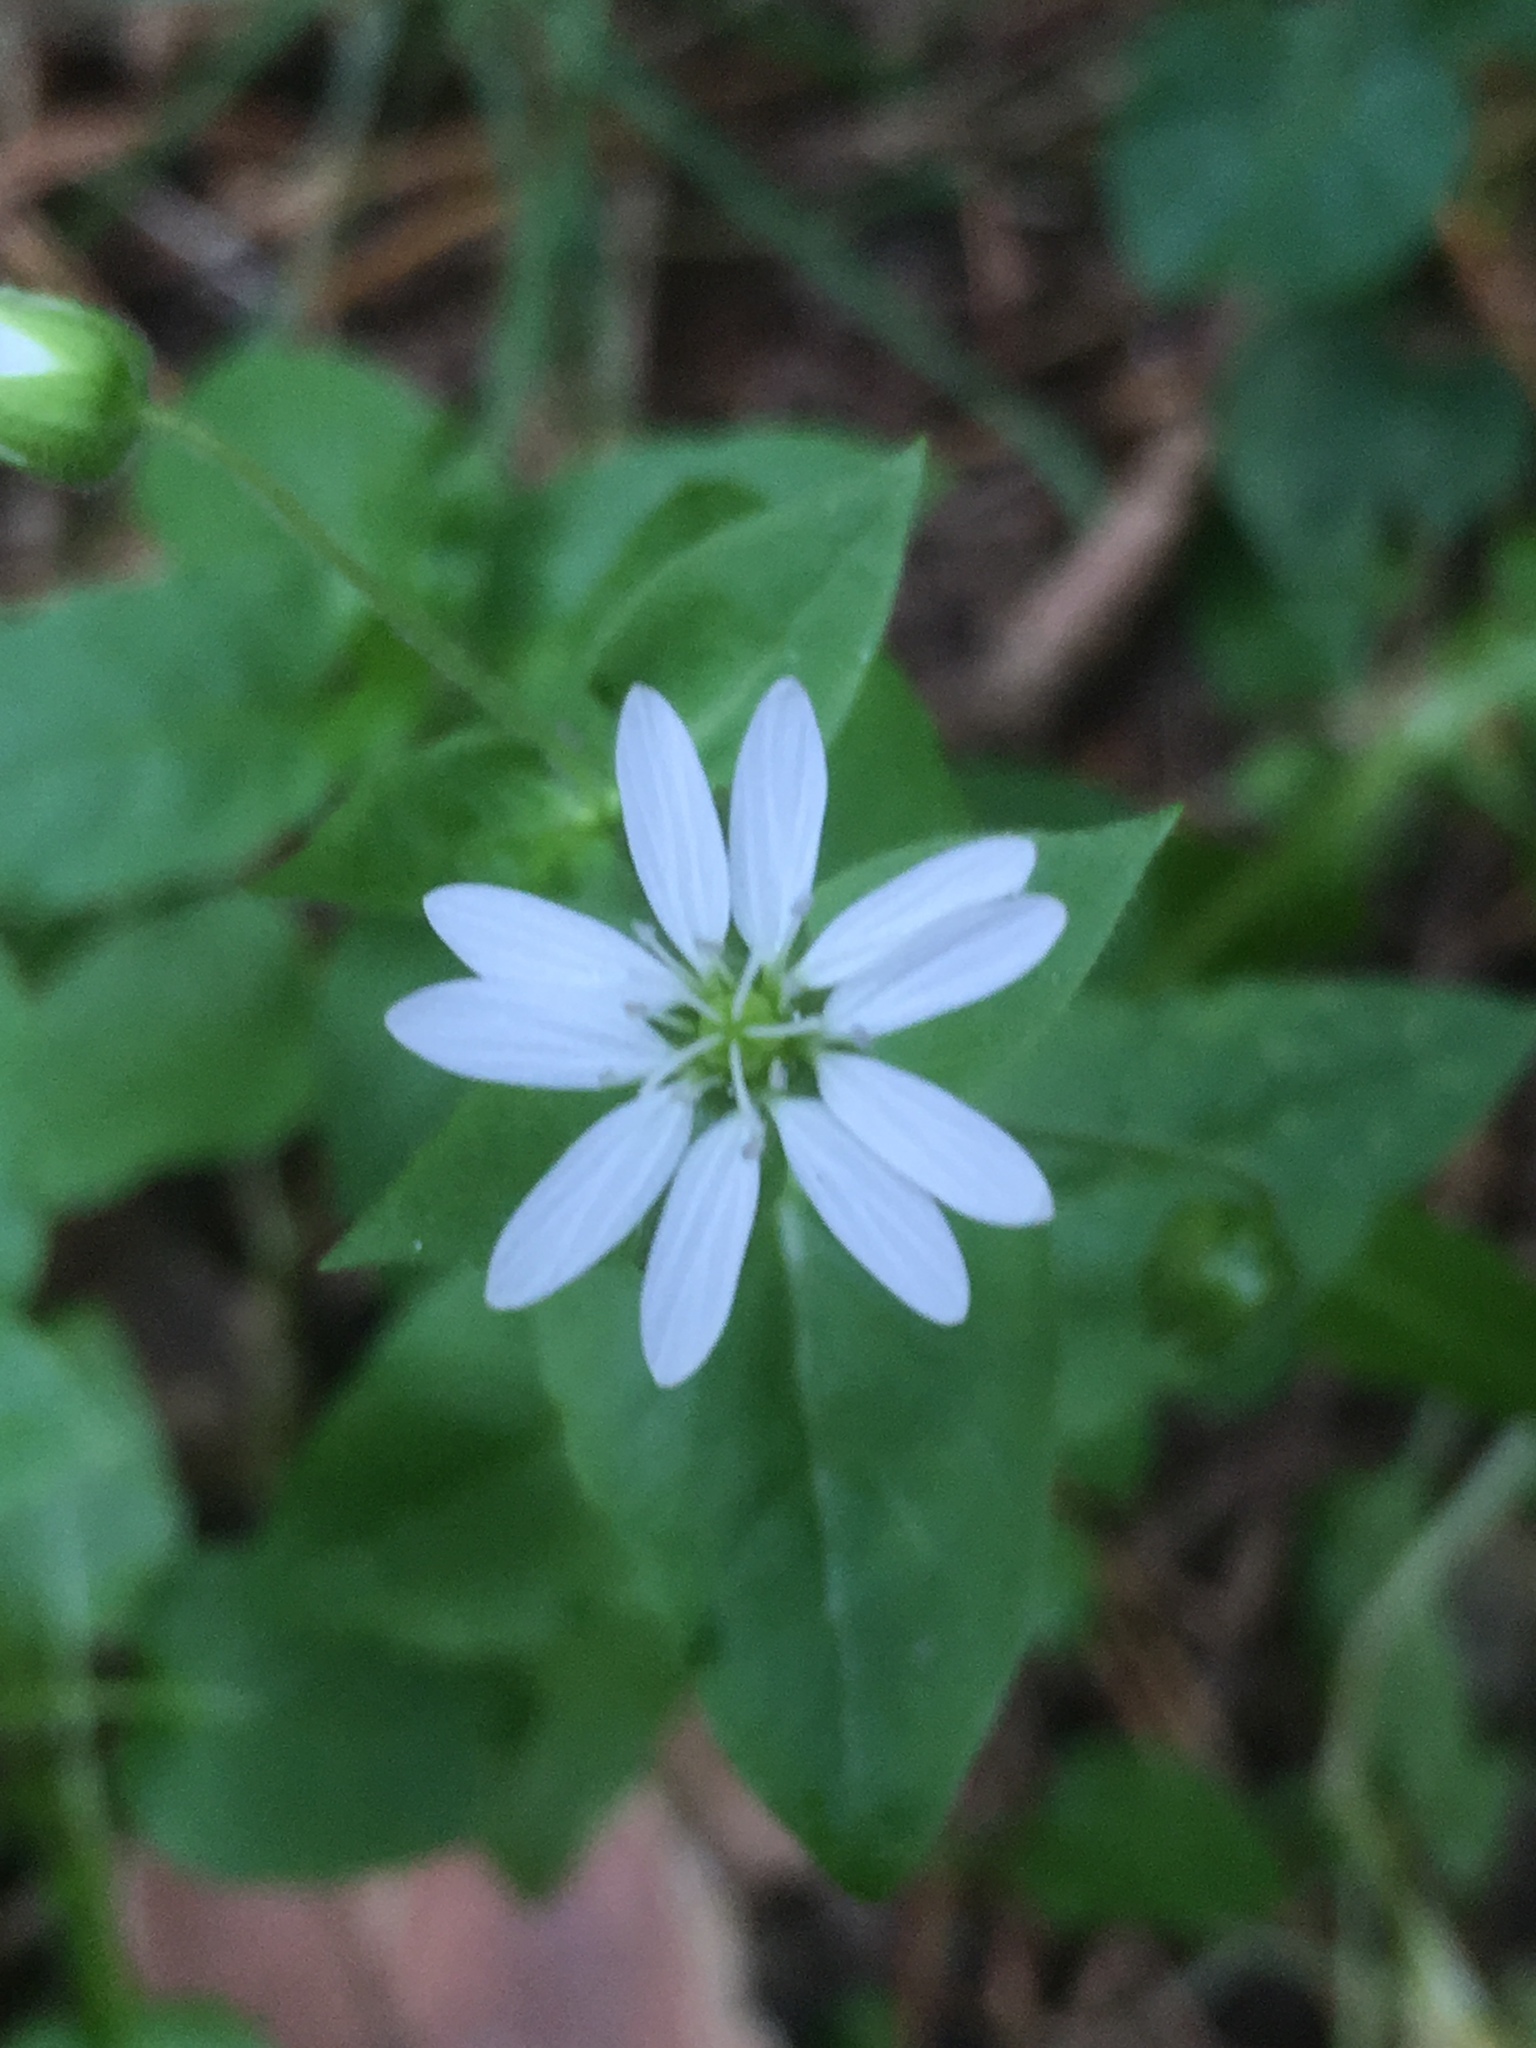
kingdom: Plantae
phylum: Tracheophyta
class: Magnoliopsida
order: Caryophyllales
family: Caryophyllaceae
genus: Stellaria
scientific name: Stellaria aquatica
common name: Water chickweed
